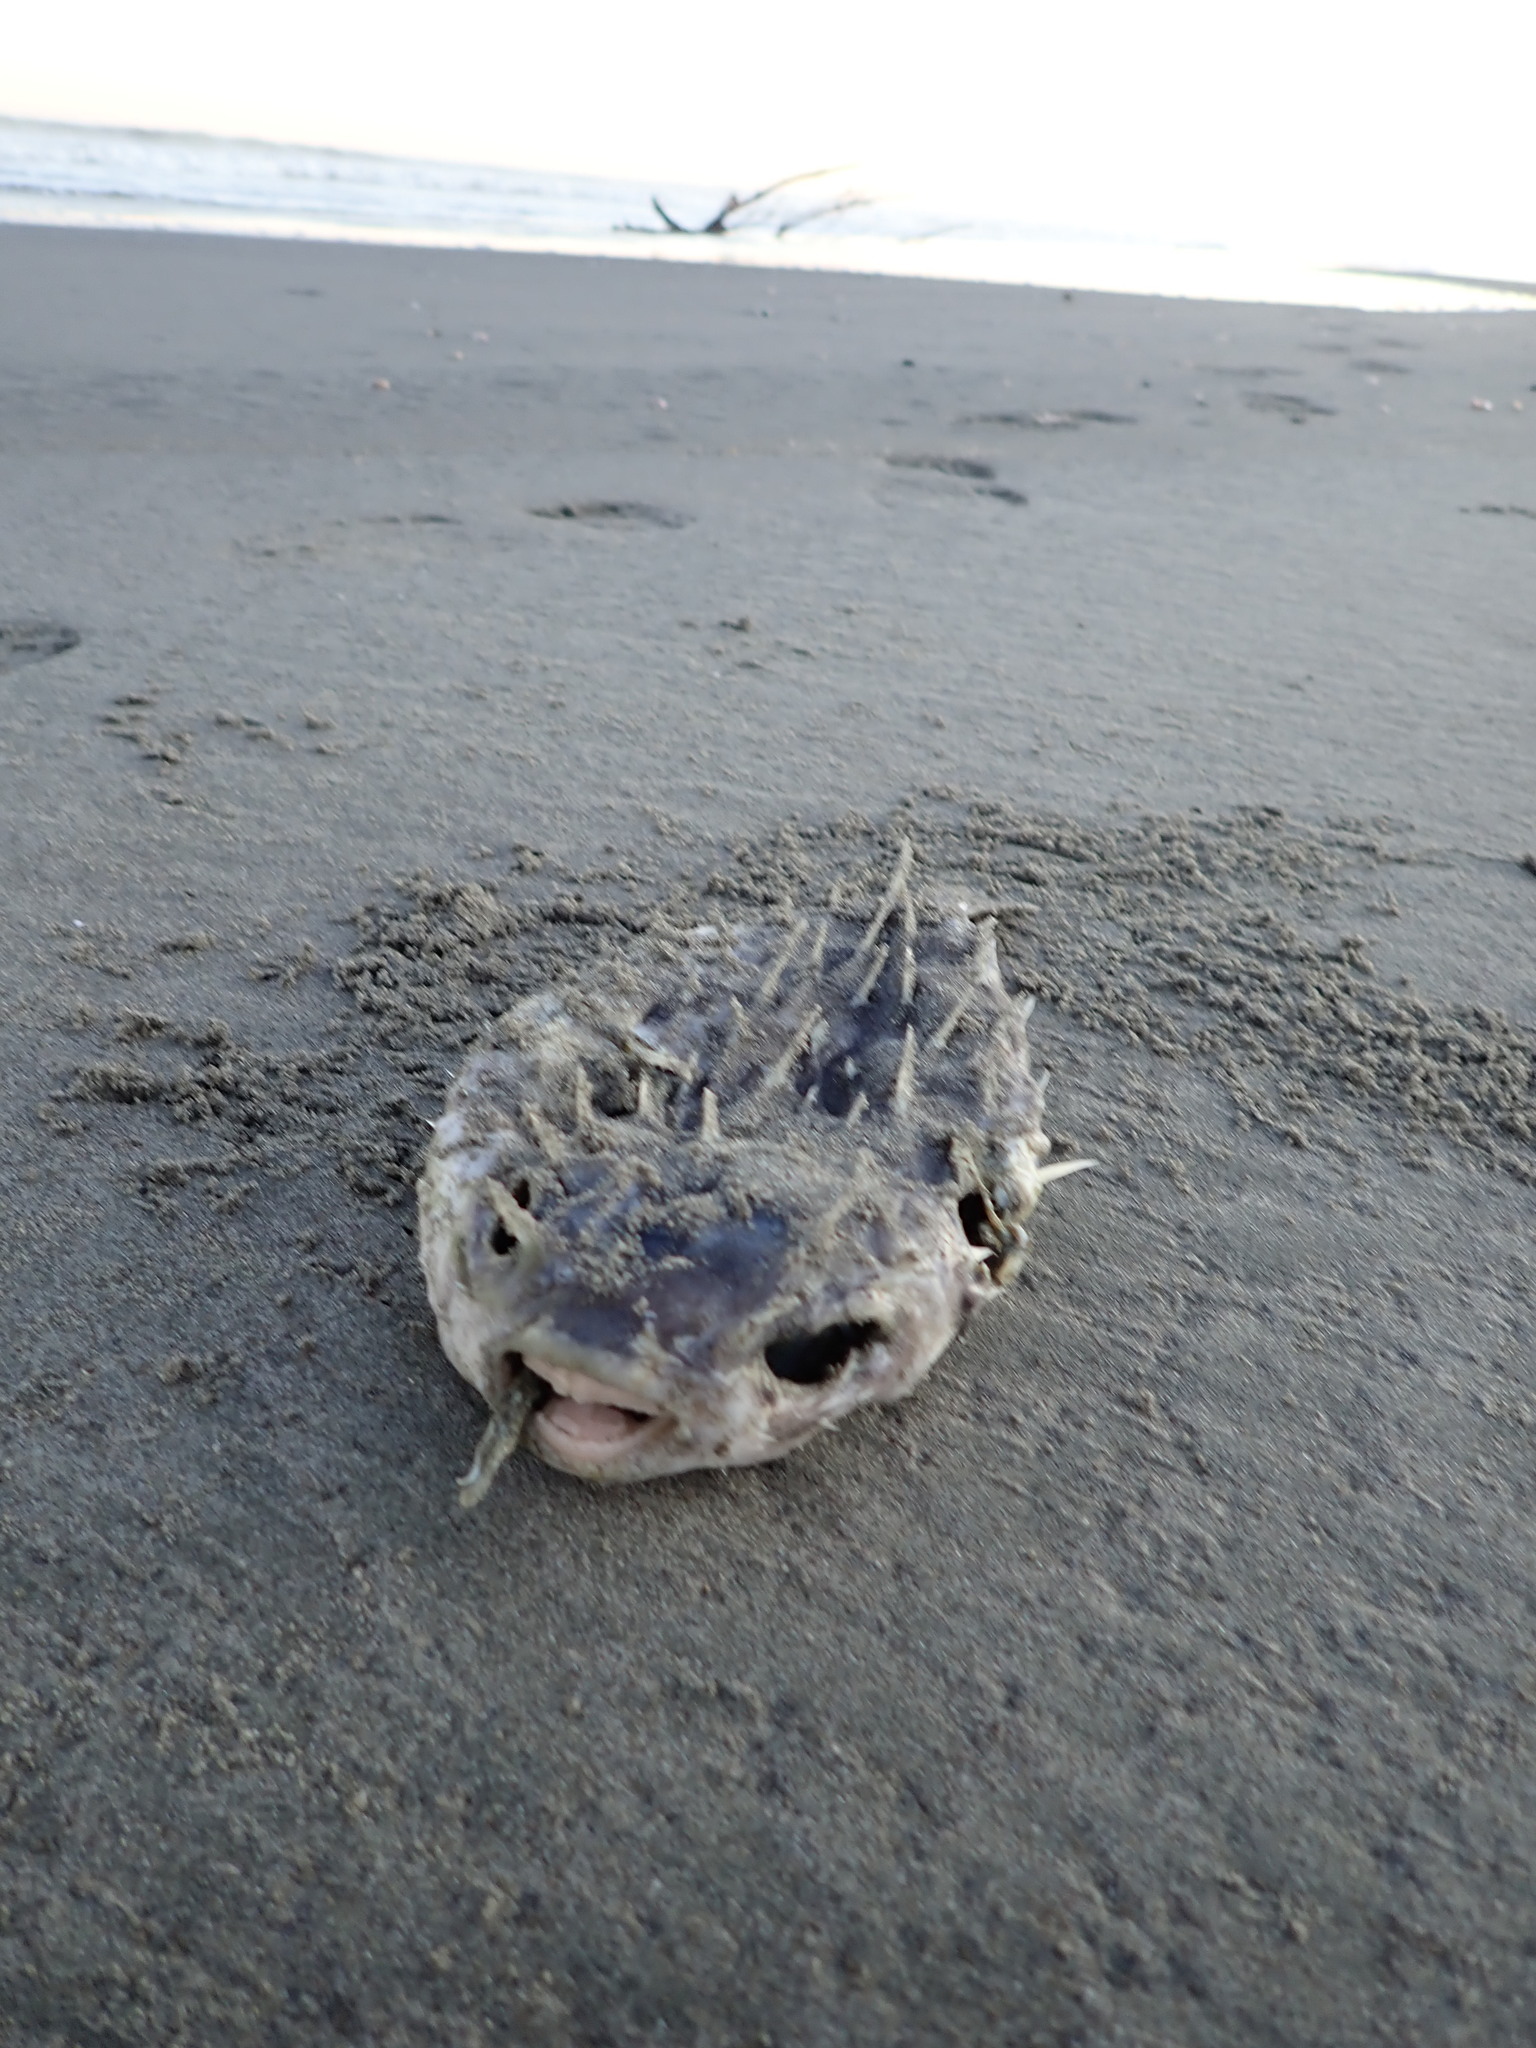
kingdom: Animalia
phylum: Chordata
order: Tetraodontiformes
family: Diodontidae
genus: Allomycterus
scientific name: Allomycterus pilatus
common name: No common name
